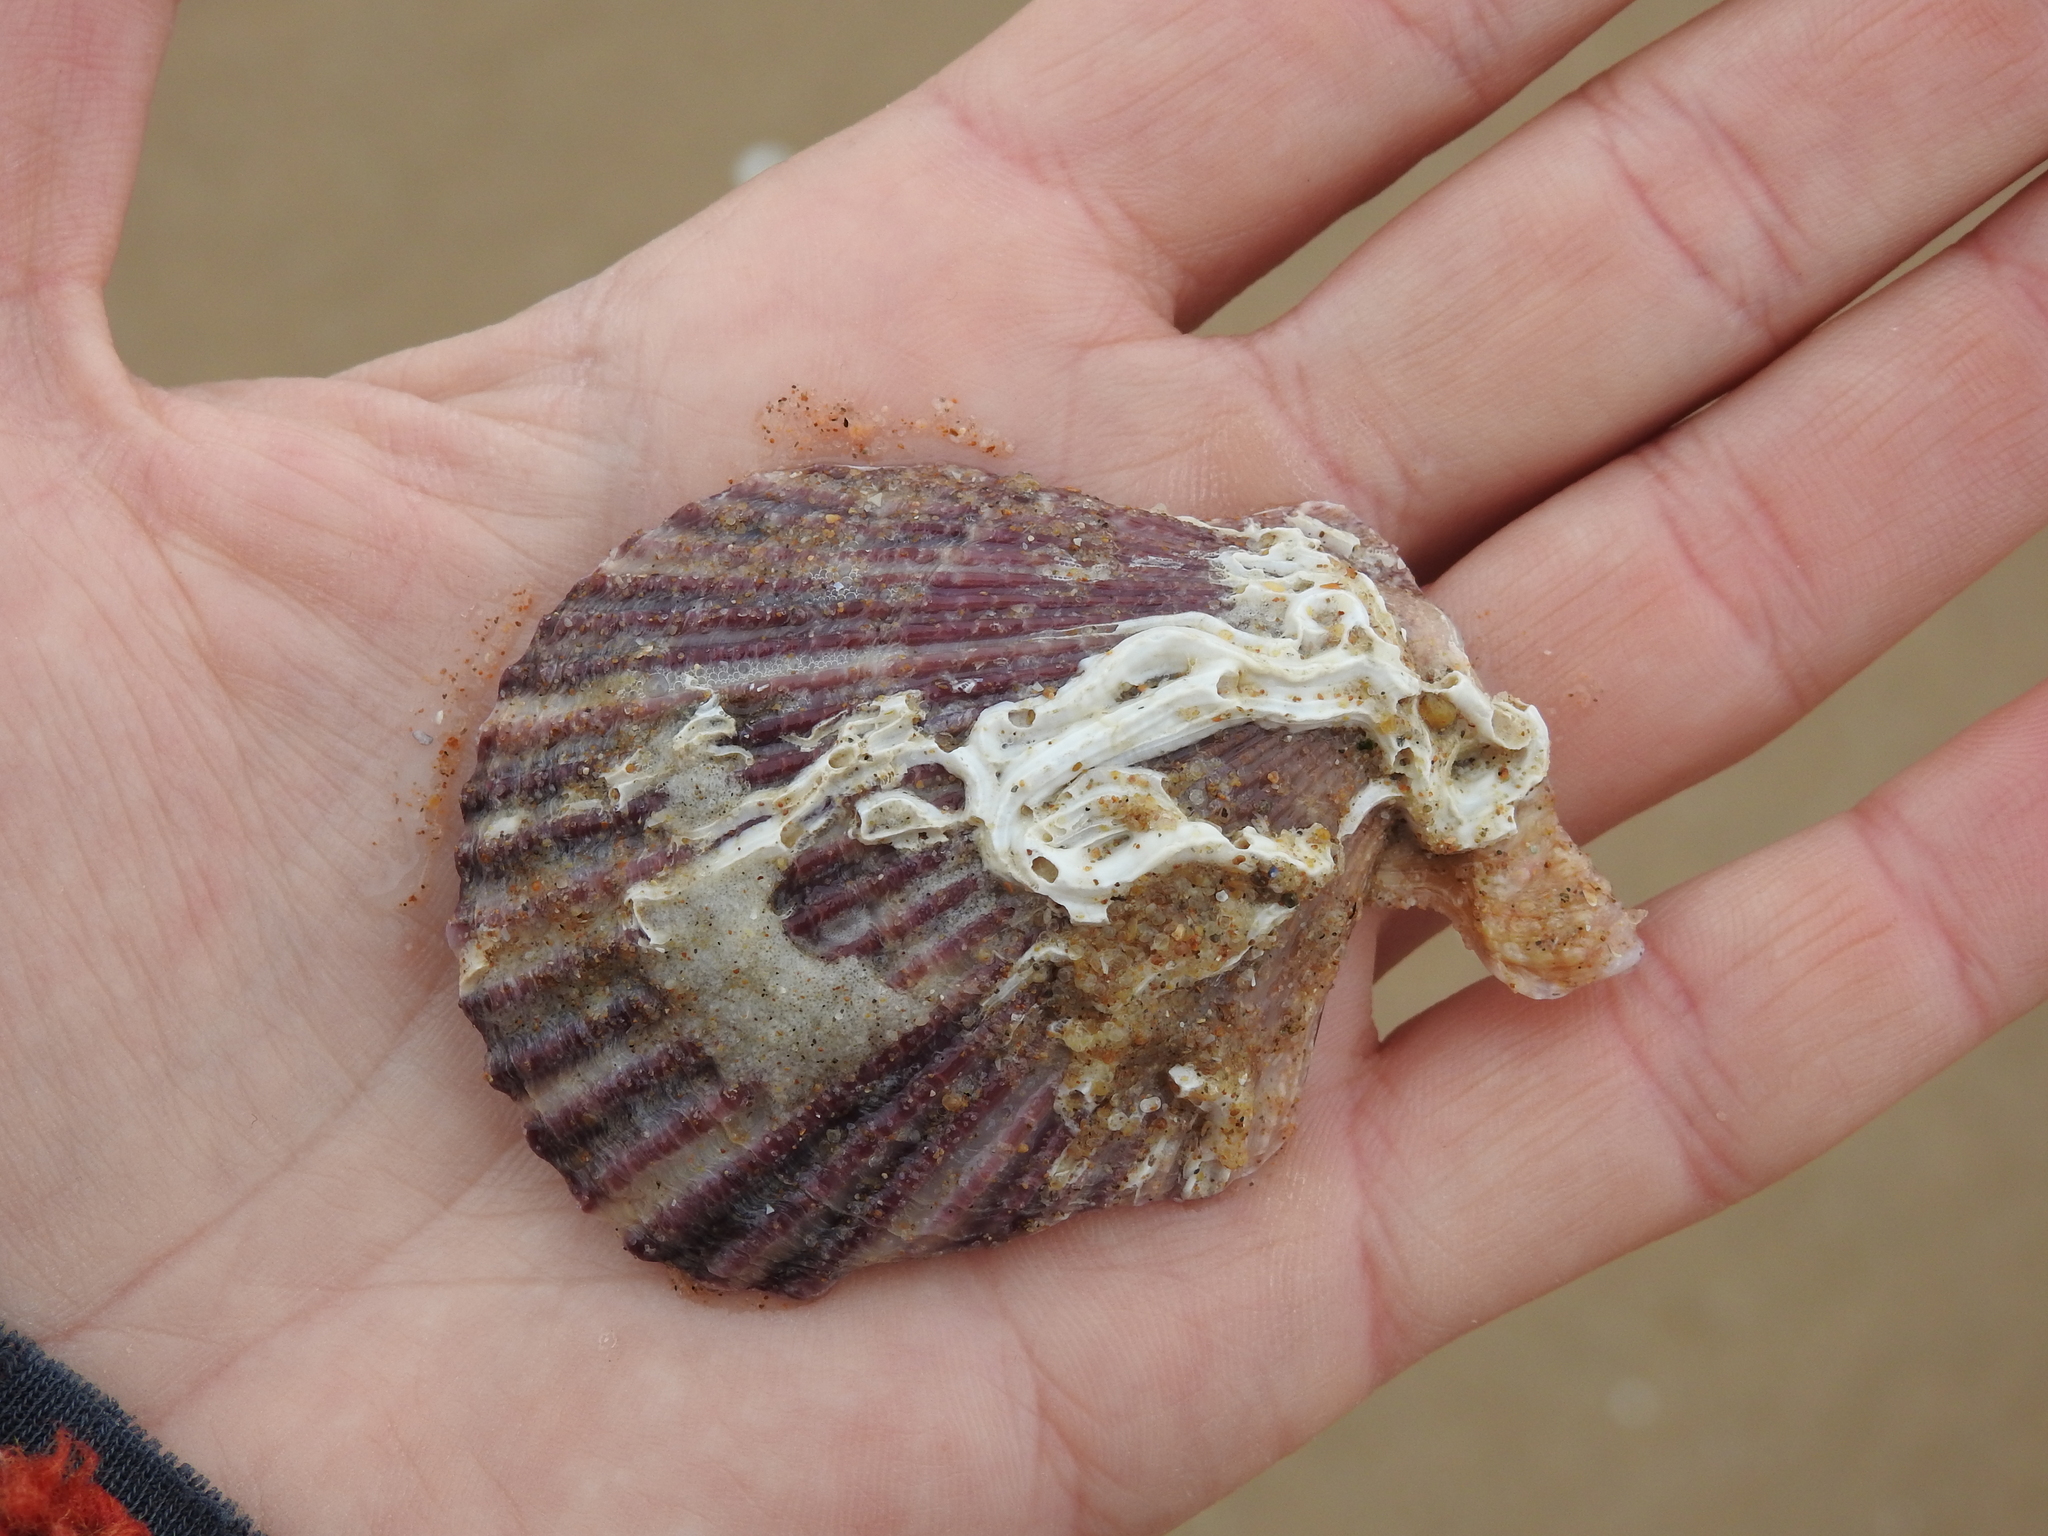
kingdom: Animalia
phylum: Mollusca
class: Bivalvia
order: Pectinida
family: Pectinidae
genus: Mimachlamys
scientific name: Mimachlamys varia
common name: Variegated scallop
